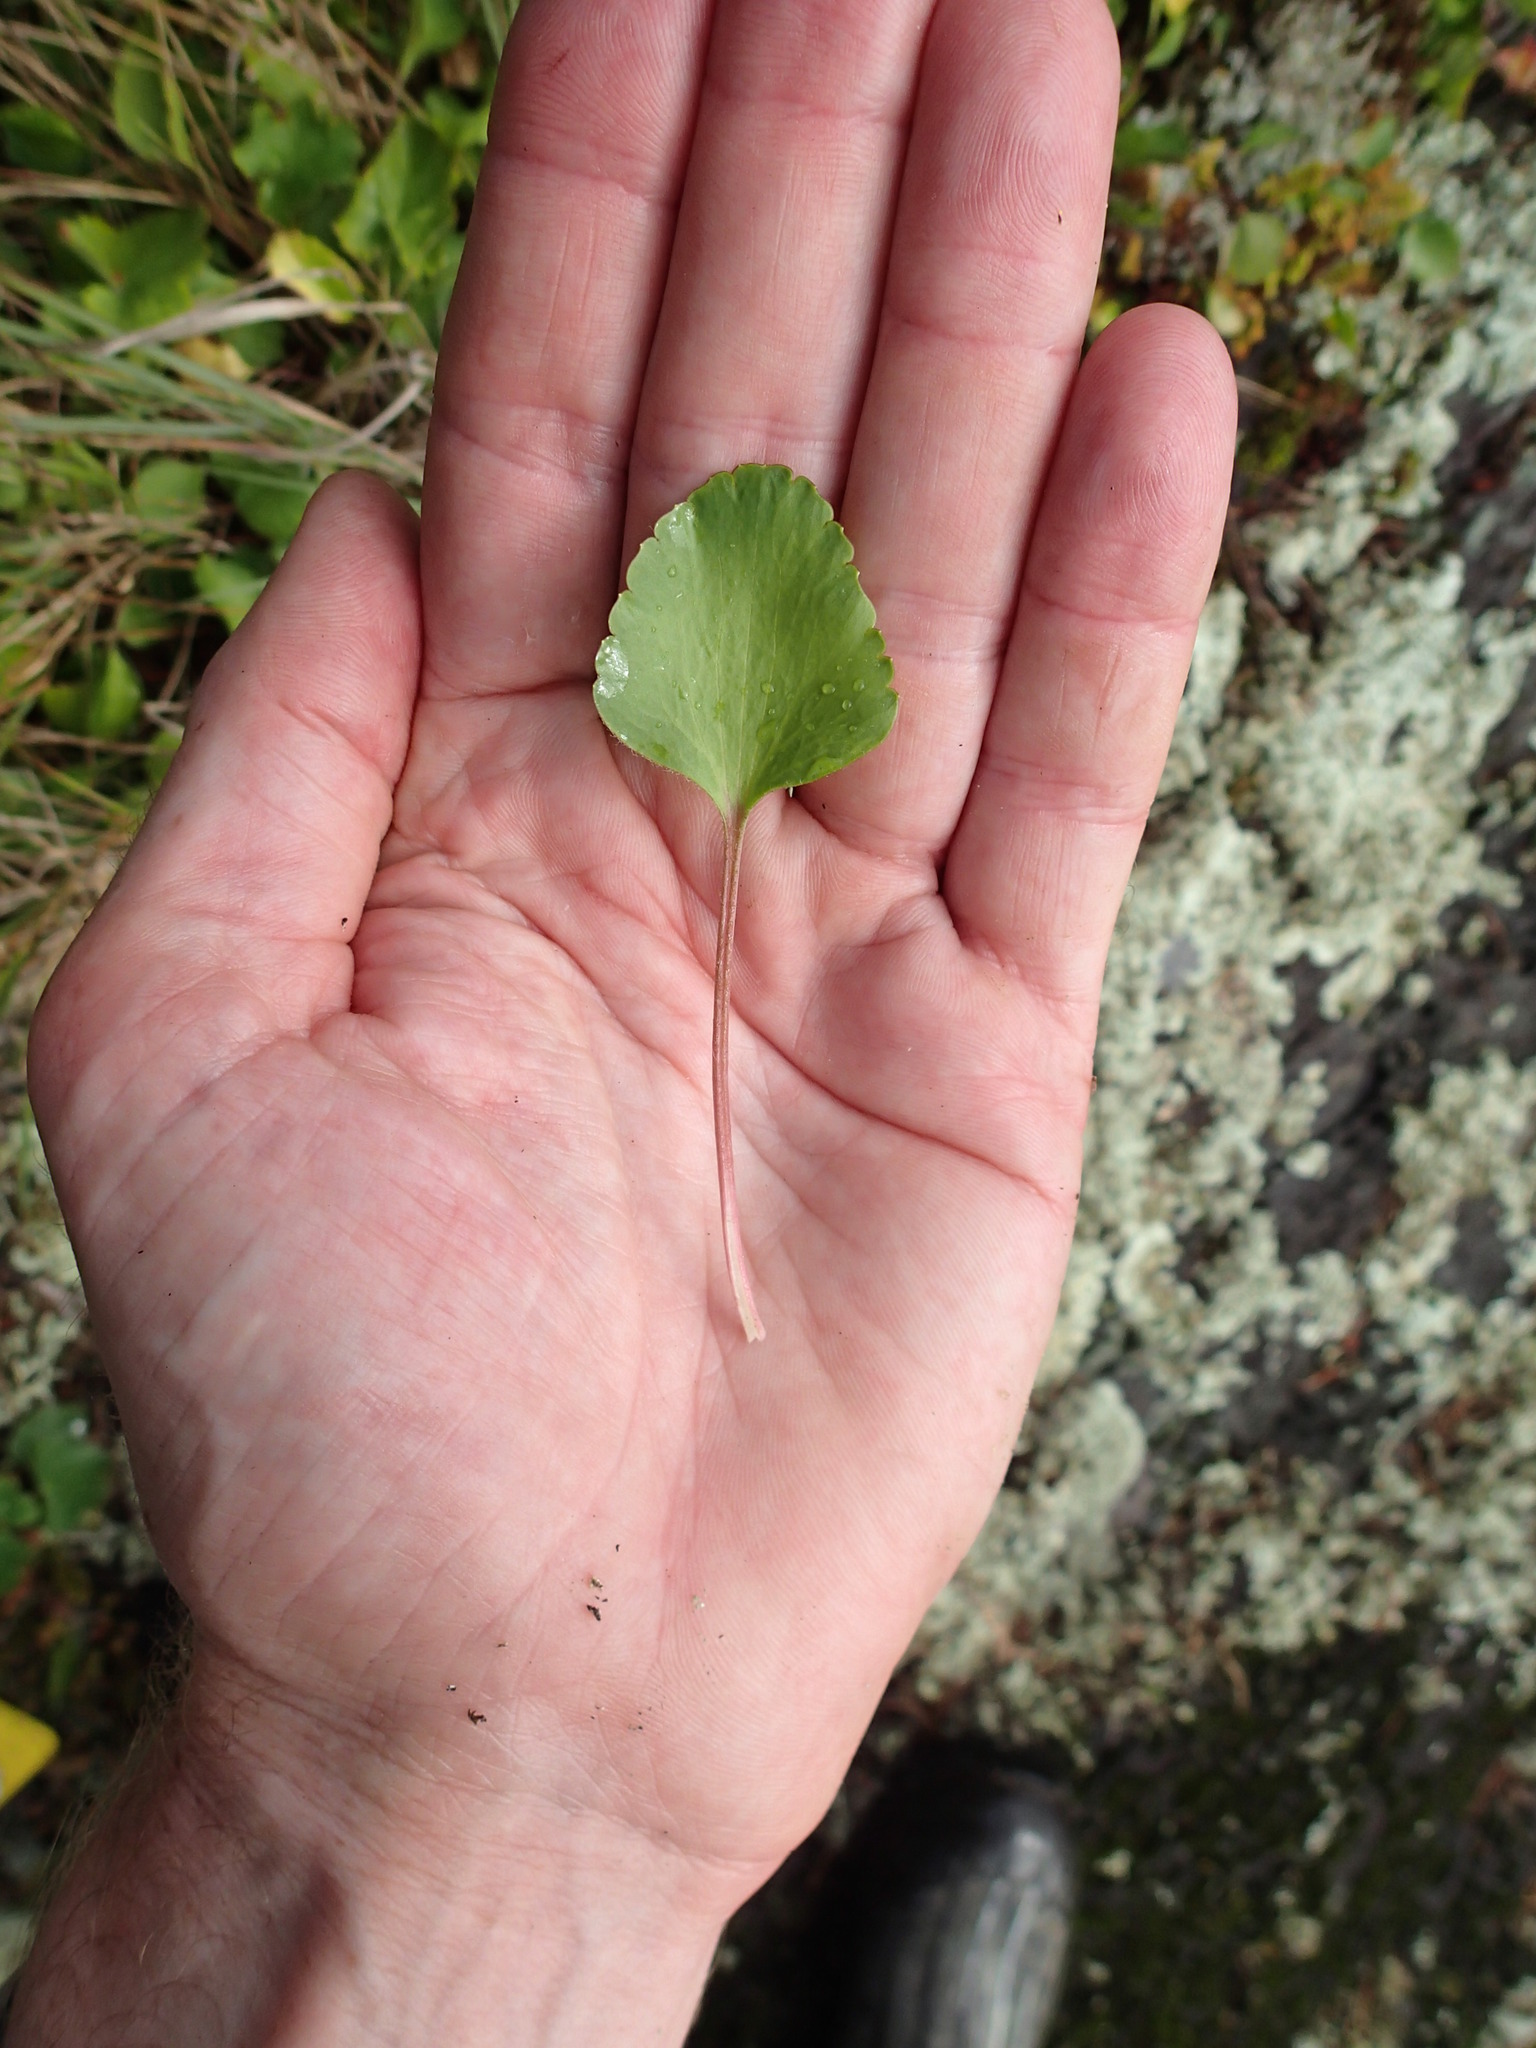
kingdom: Plantae
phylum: Tracheophyta
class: Magnoliopsida
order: Ranunculales
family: Ranunculaceae
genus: Ranunculus
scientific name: Ranunculus rhomboideus
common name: Prairie buttercup
